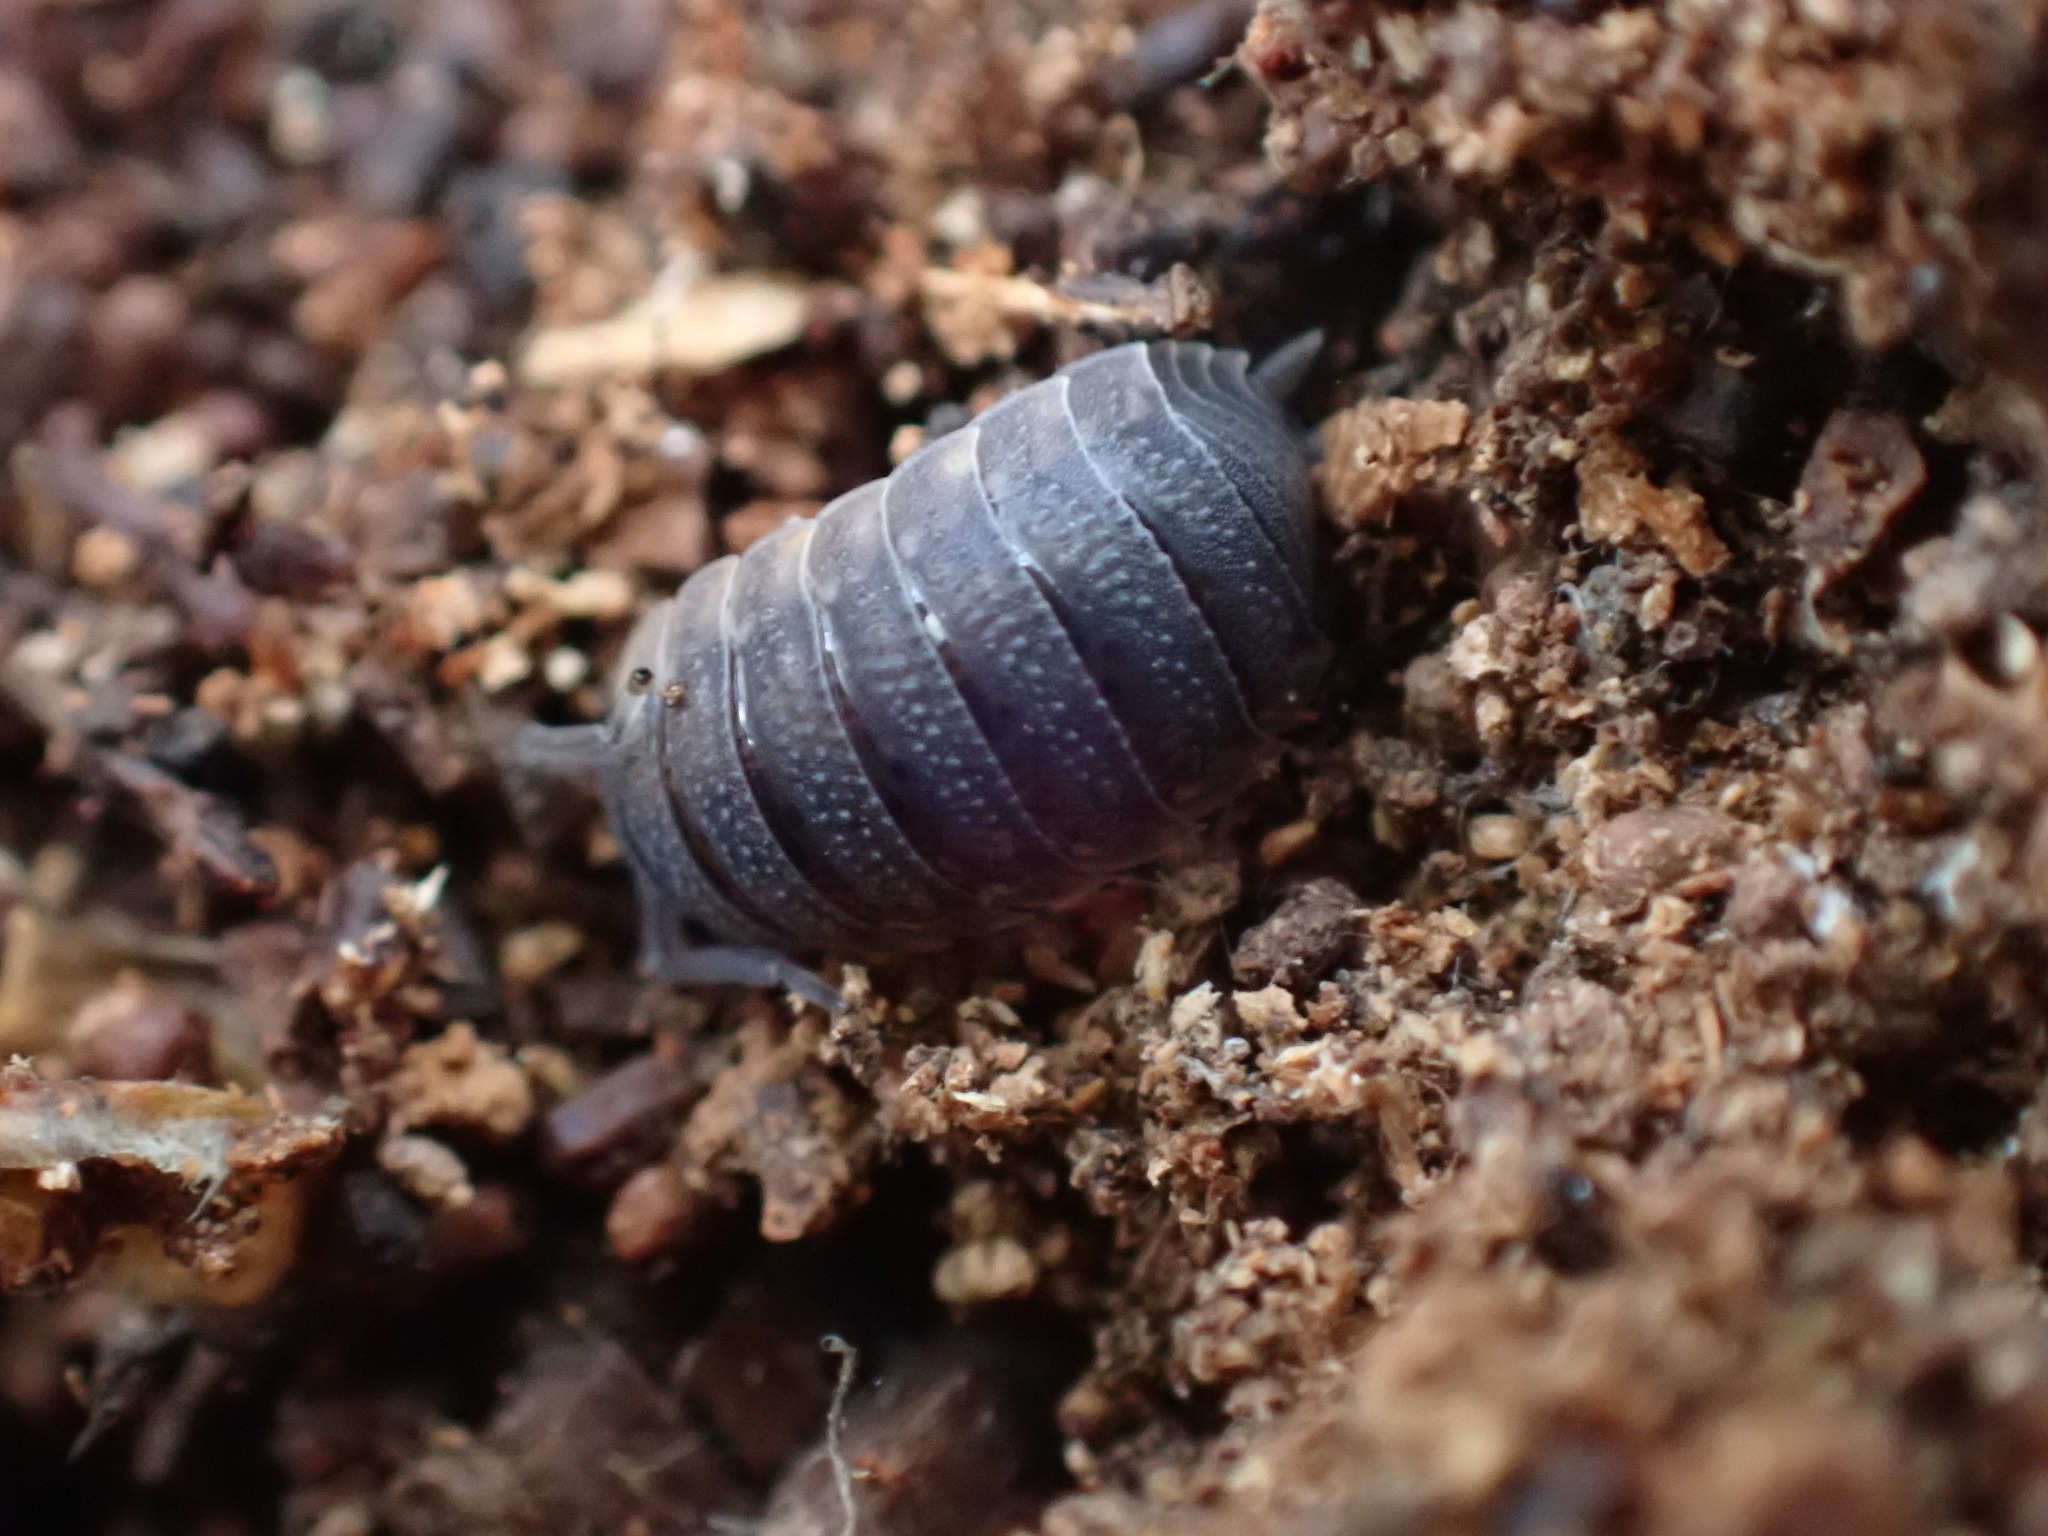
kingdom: Animalia
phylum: Arthropoda
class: Malacostraca
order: Isopoda
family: Porcellionidae
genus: Porcellio
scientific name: Porcellio scaber
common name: Common rough woodlouse
